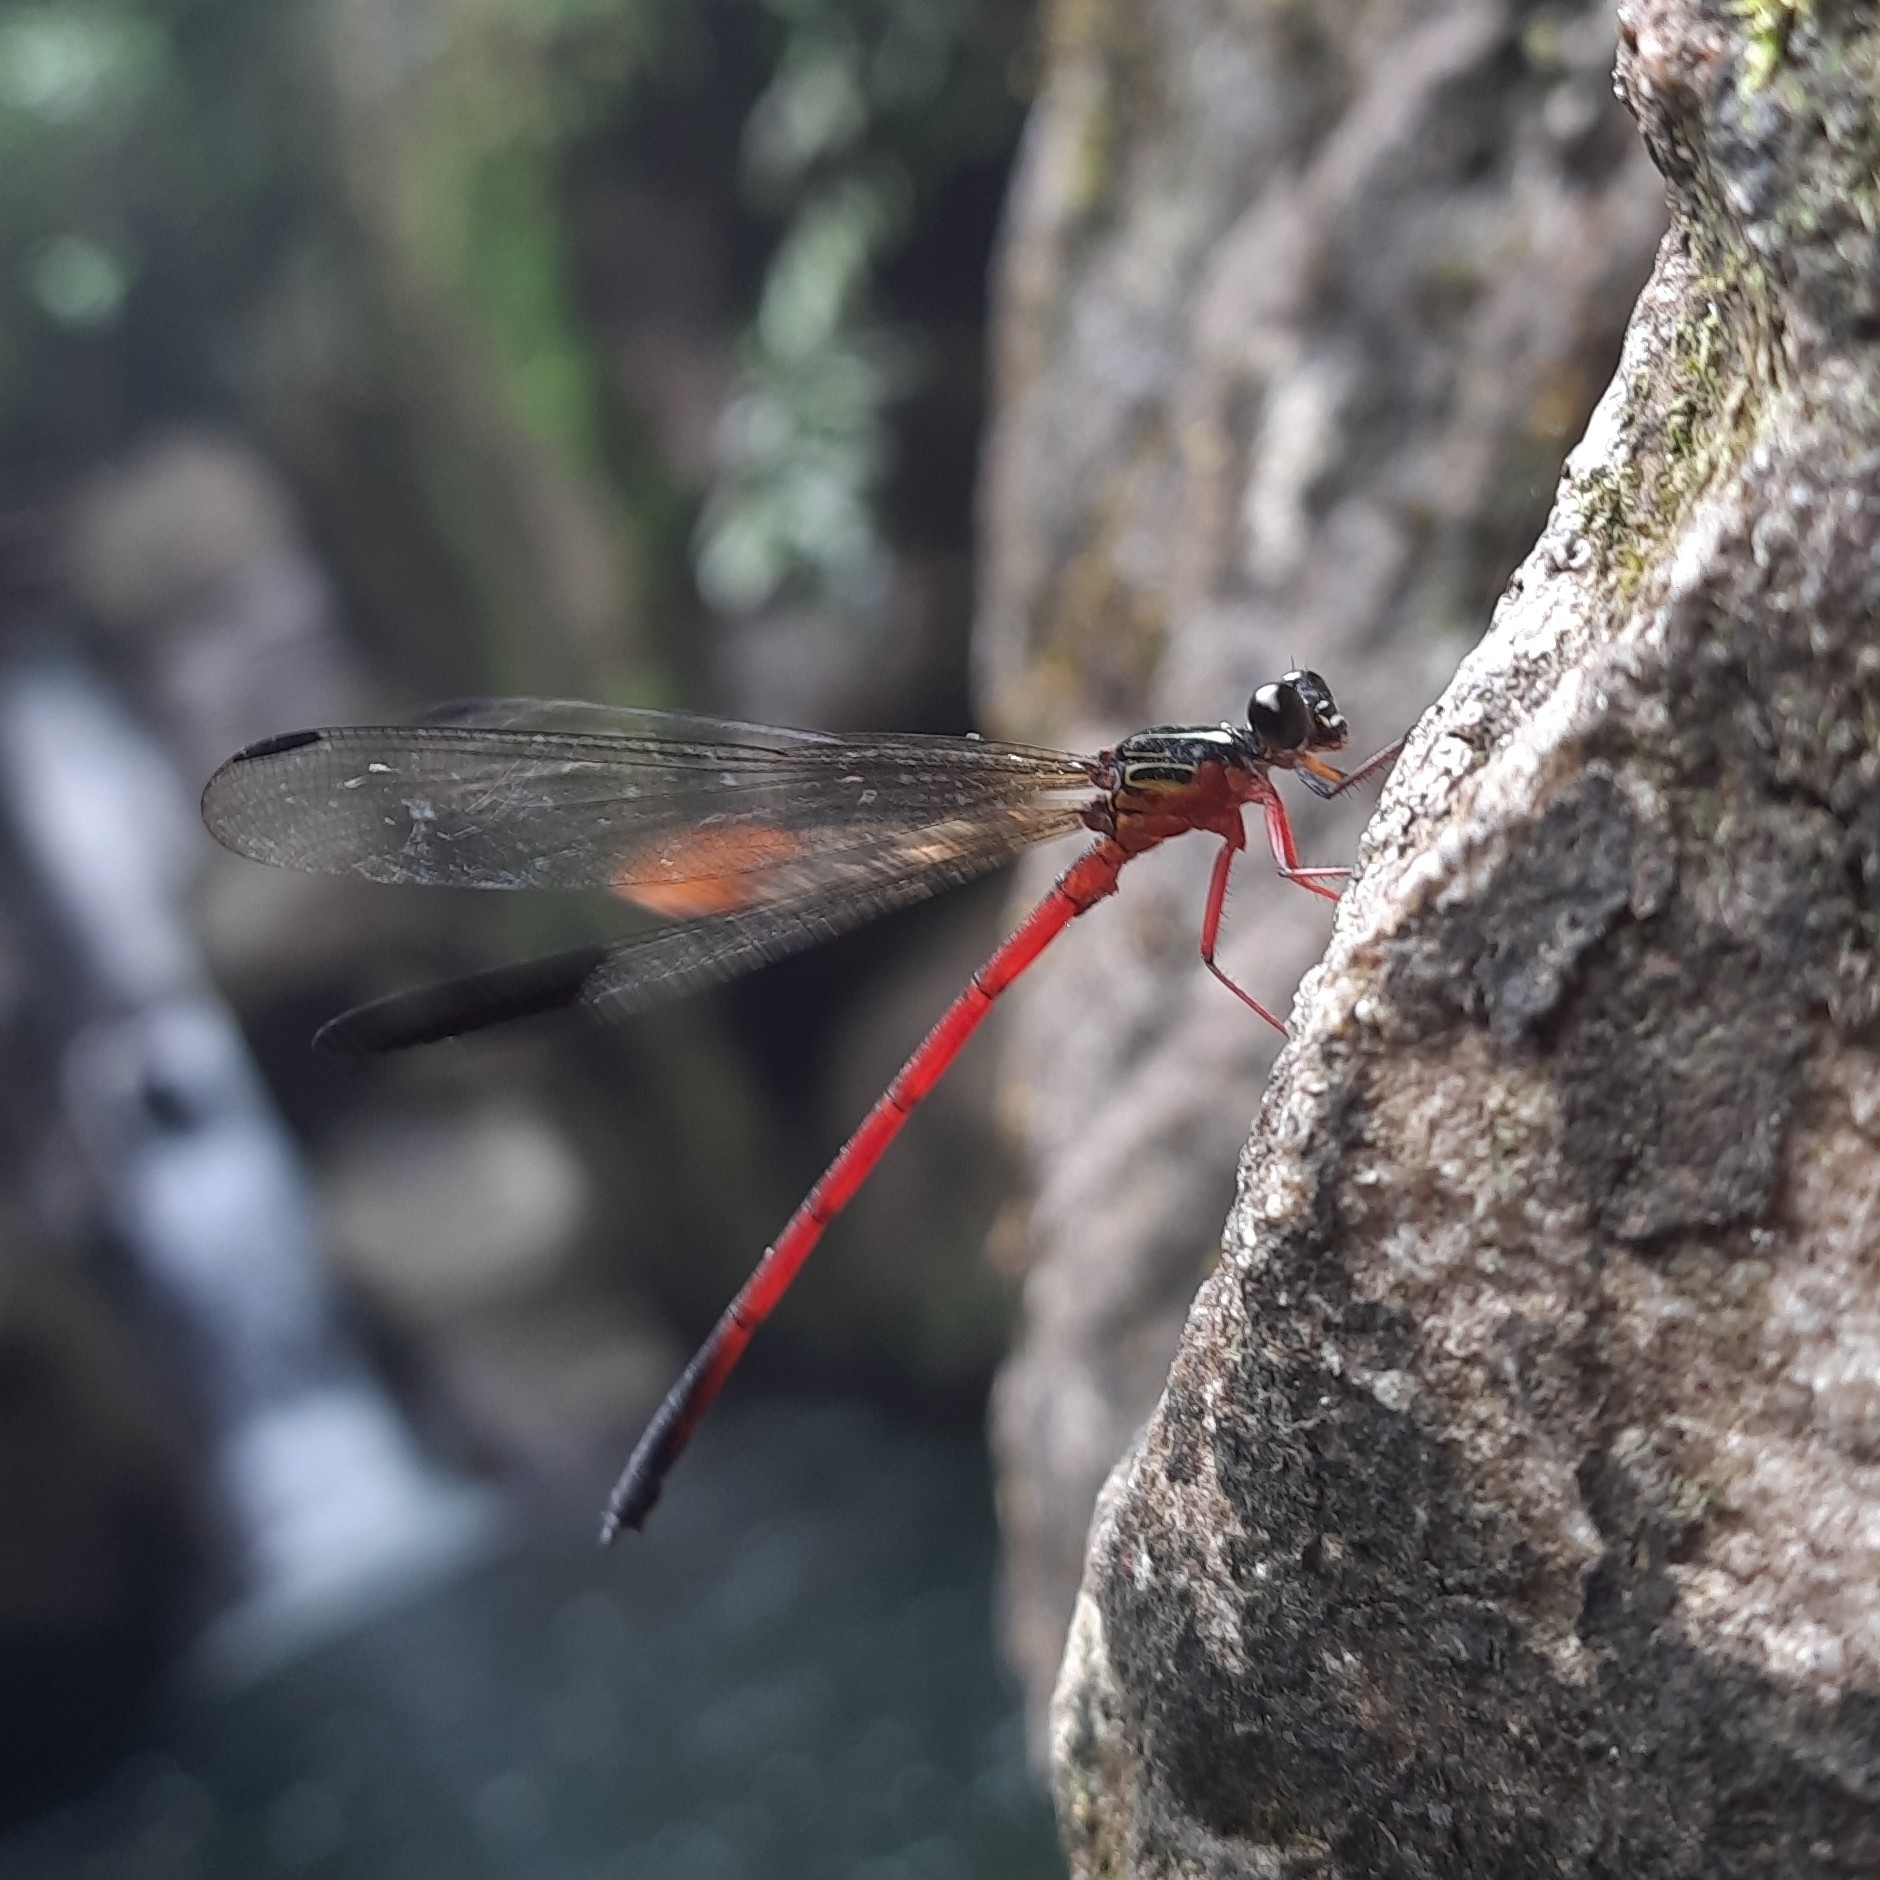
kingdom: Animalia
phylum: Arthropoda
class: Insecta
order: Odonata
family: Euphaeidae
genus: Euphaea
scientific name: Euphaea fraseri
